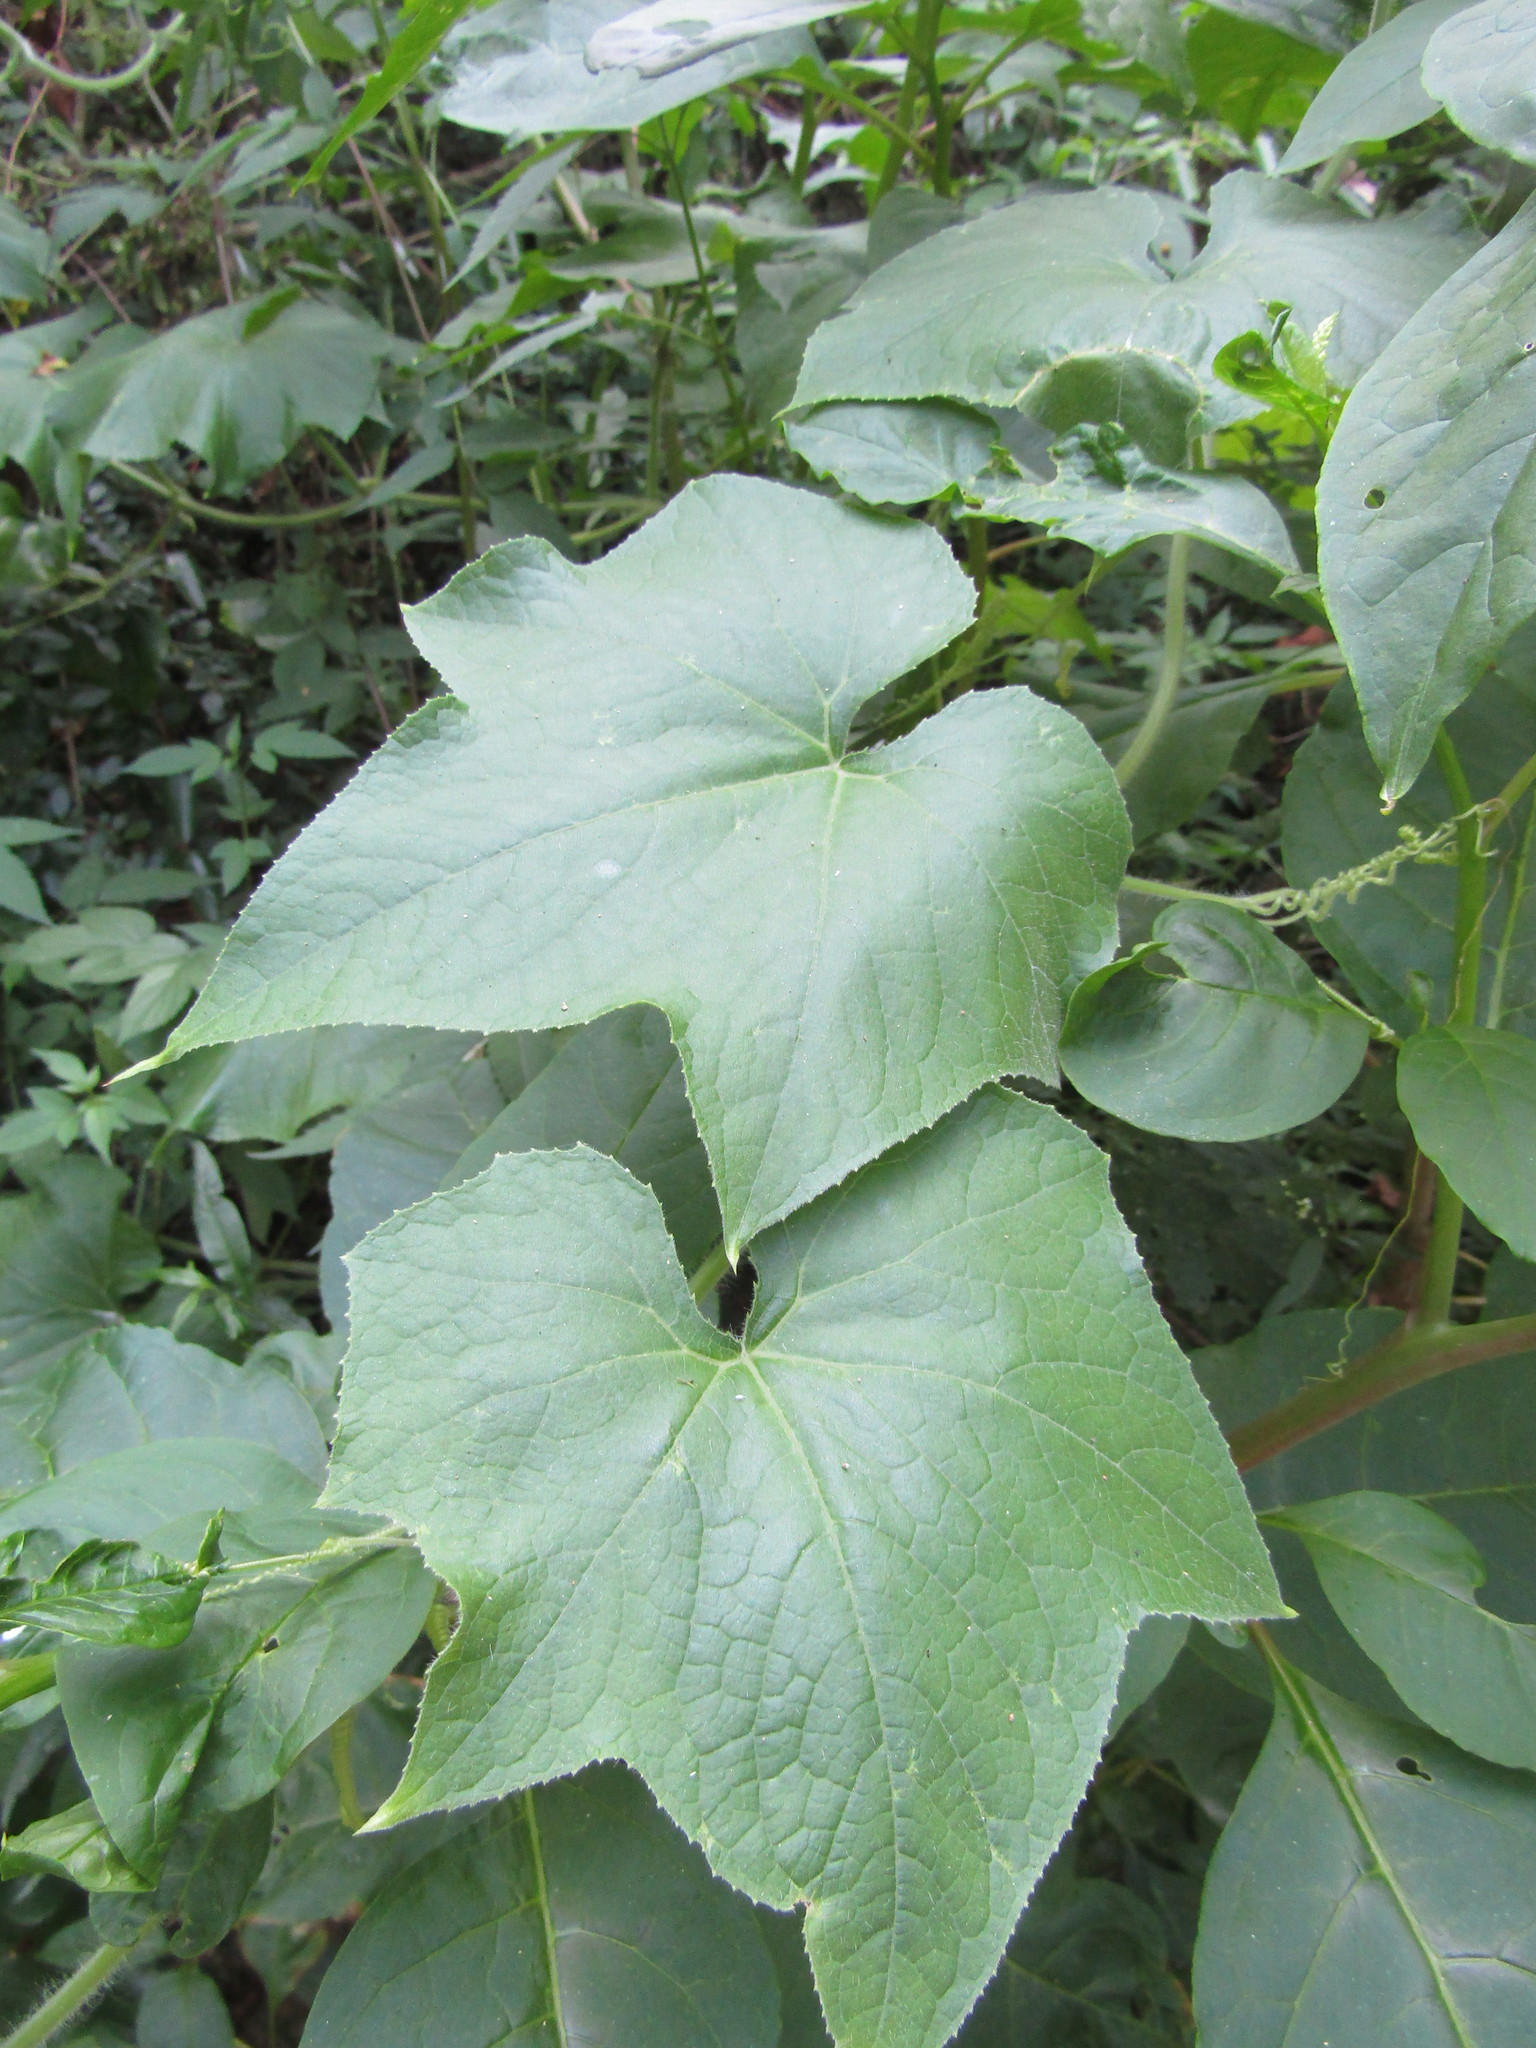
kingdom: Plantae
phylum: Tracheophyta
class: Magnoliopsida
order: Cucurbitales
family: Cucurbitaceae
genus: Sicyos
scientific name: Sicyos angulatus
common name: Angled burr cucumber
